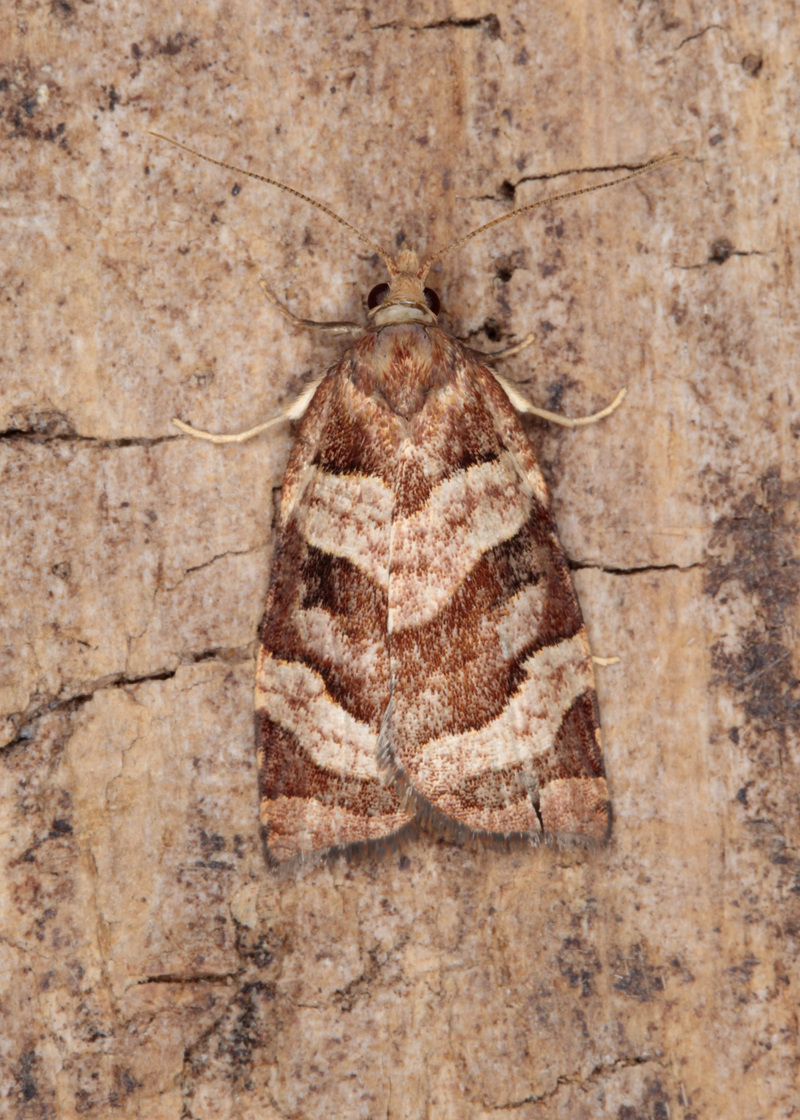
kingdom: Animalia
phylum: Arthropoda
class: Insecta
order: Lepidoptera
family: Tortricidae
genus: Apoctena
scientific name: Apoctena tigris
